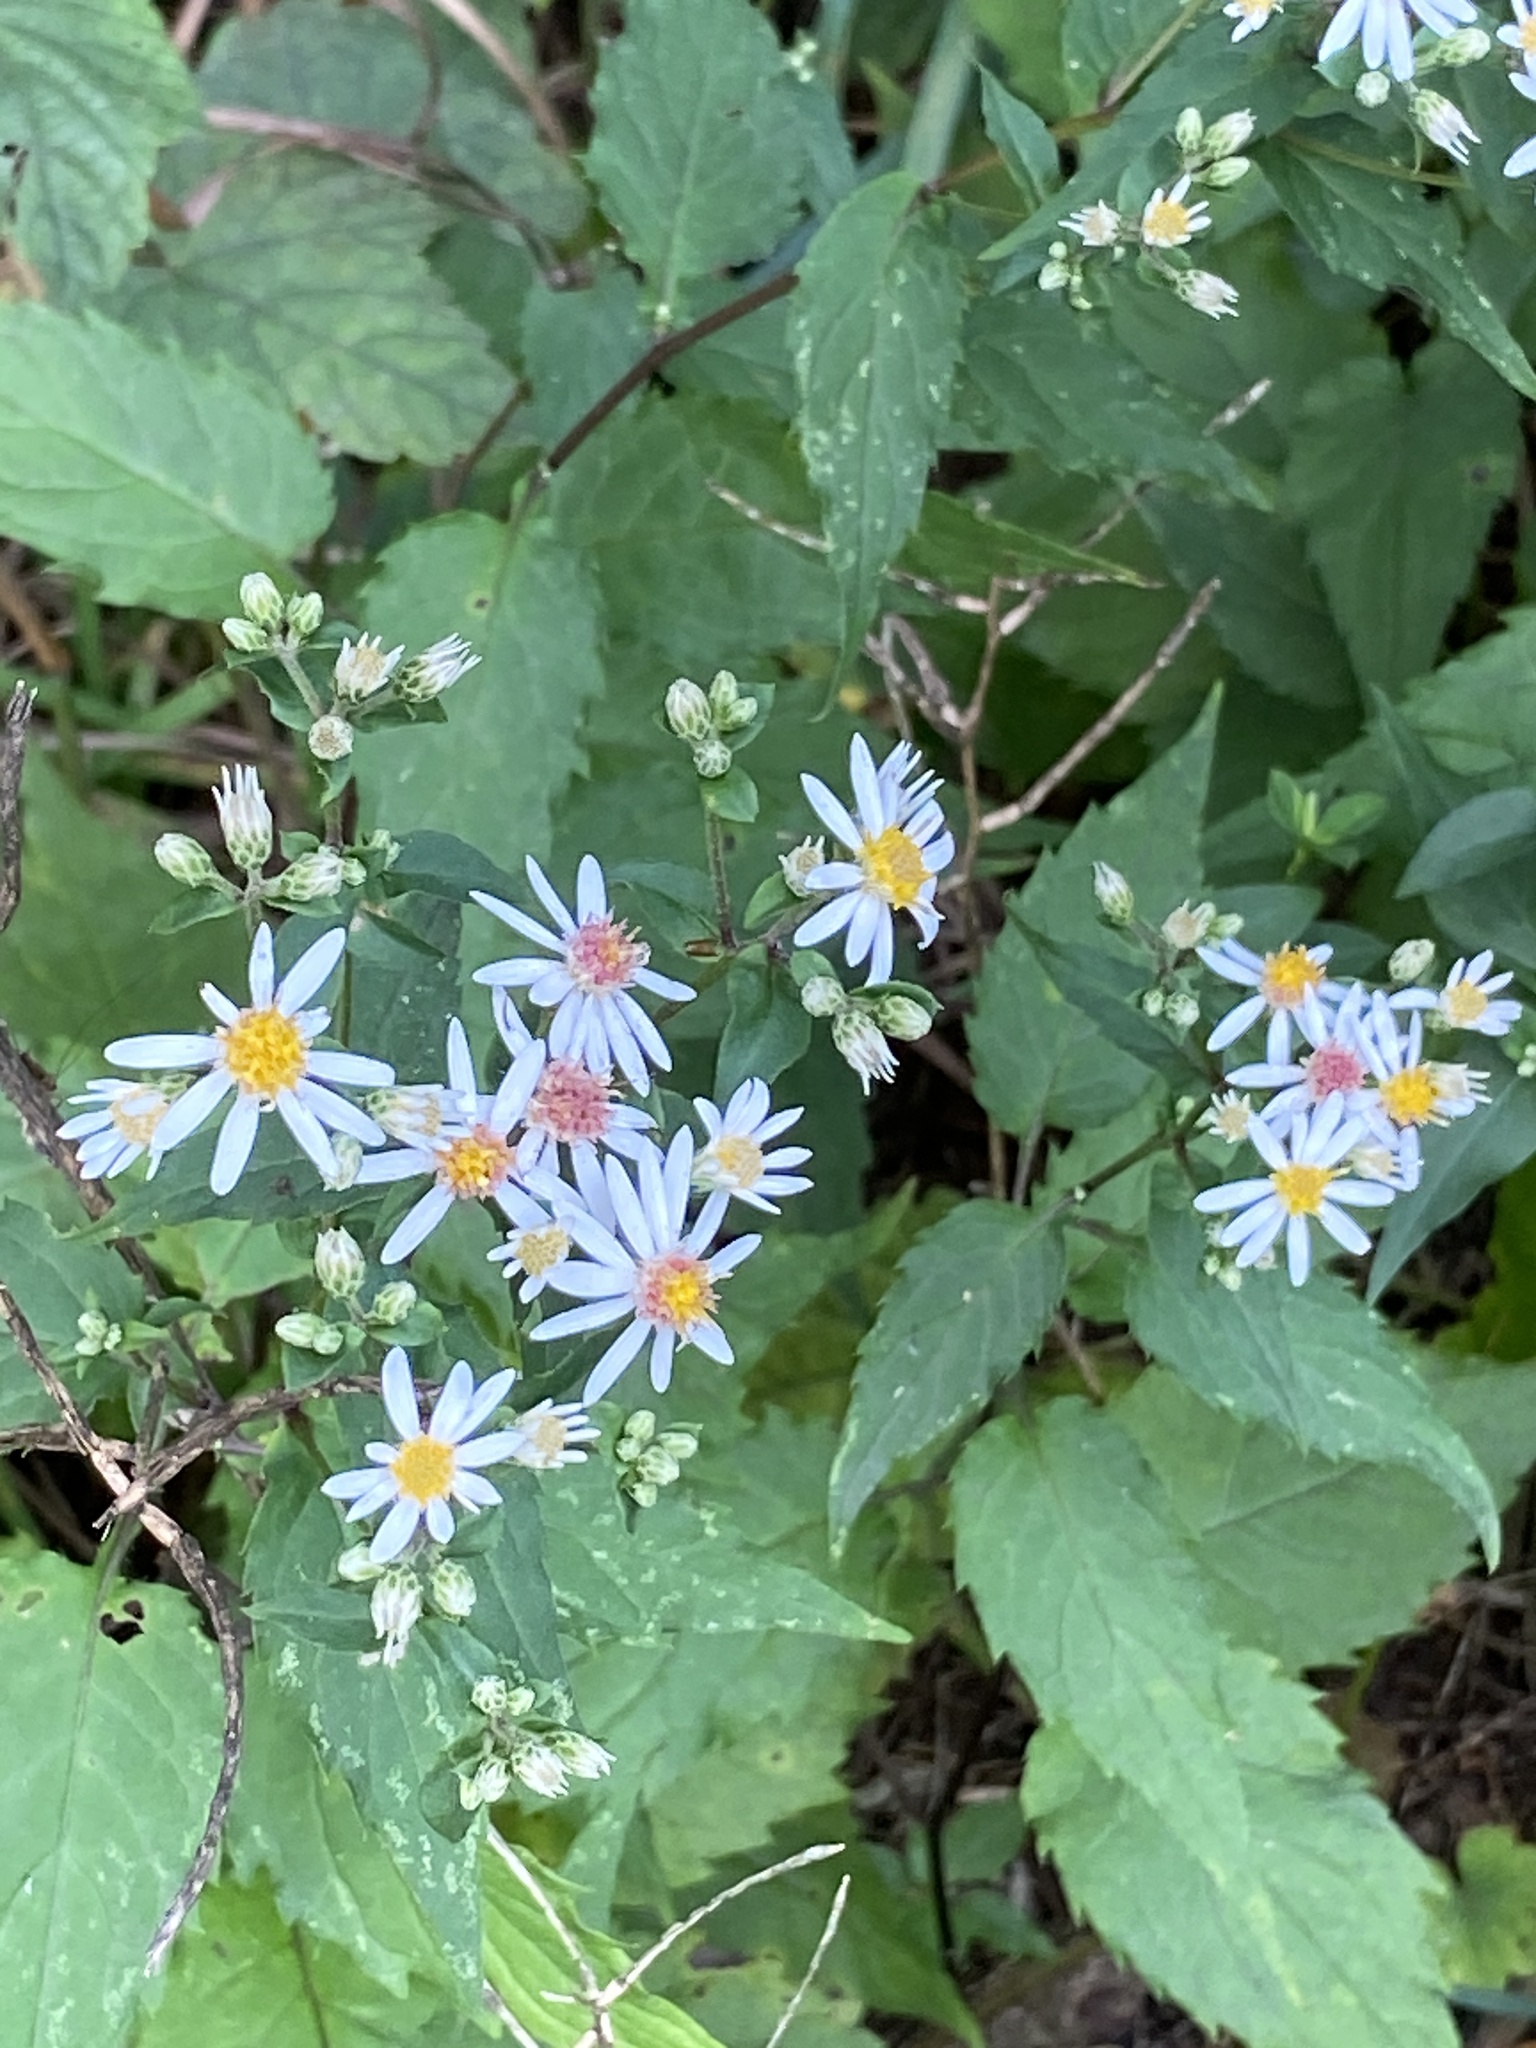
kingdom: Plantae
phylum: Tracheophyta
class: Magnoliopsida
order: Asterales
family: Asteraceae
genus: Eurybia
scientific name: Eurybia divaricata
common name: White wood aster
